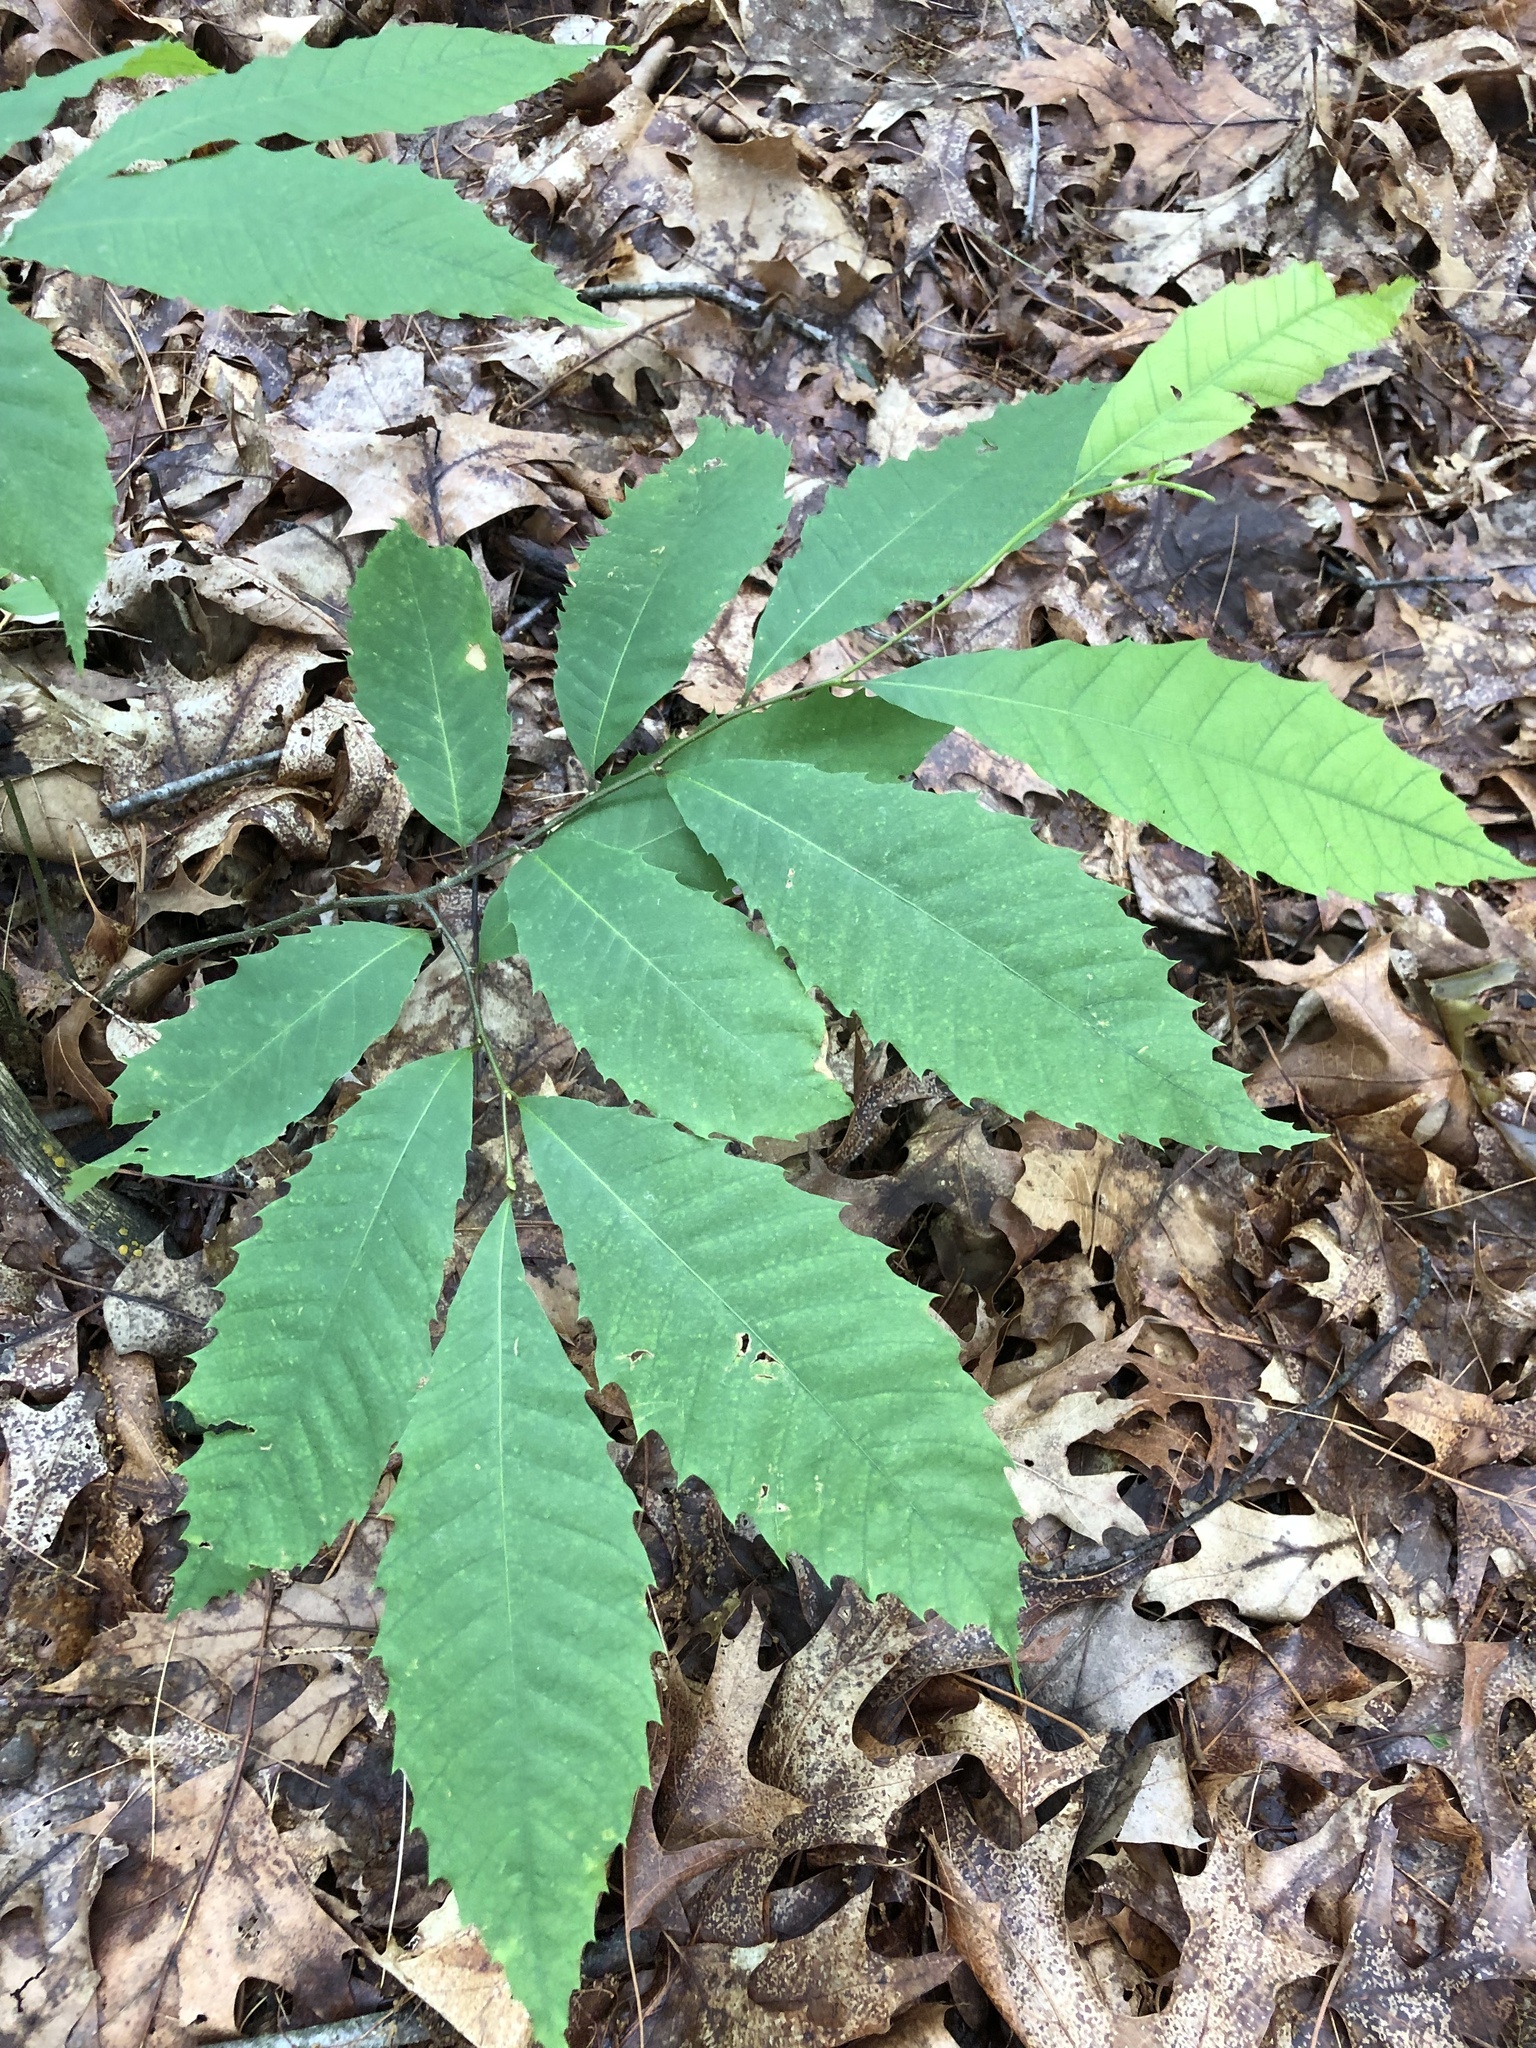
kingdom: Plantae
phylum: Tracheophyta
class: Magnoliopsida
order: Fagales
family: Fagaceae
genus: Castanea
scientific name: Castanea dentata
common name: American chestnut
